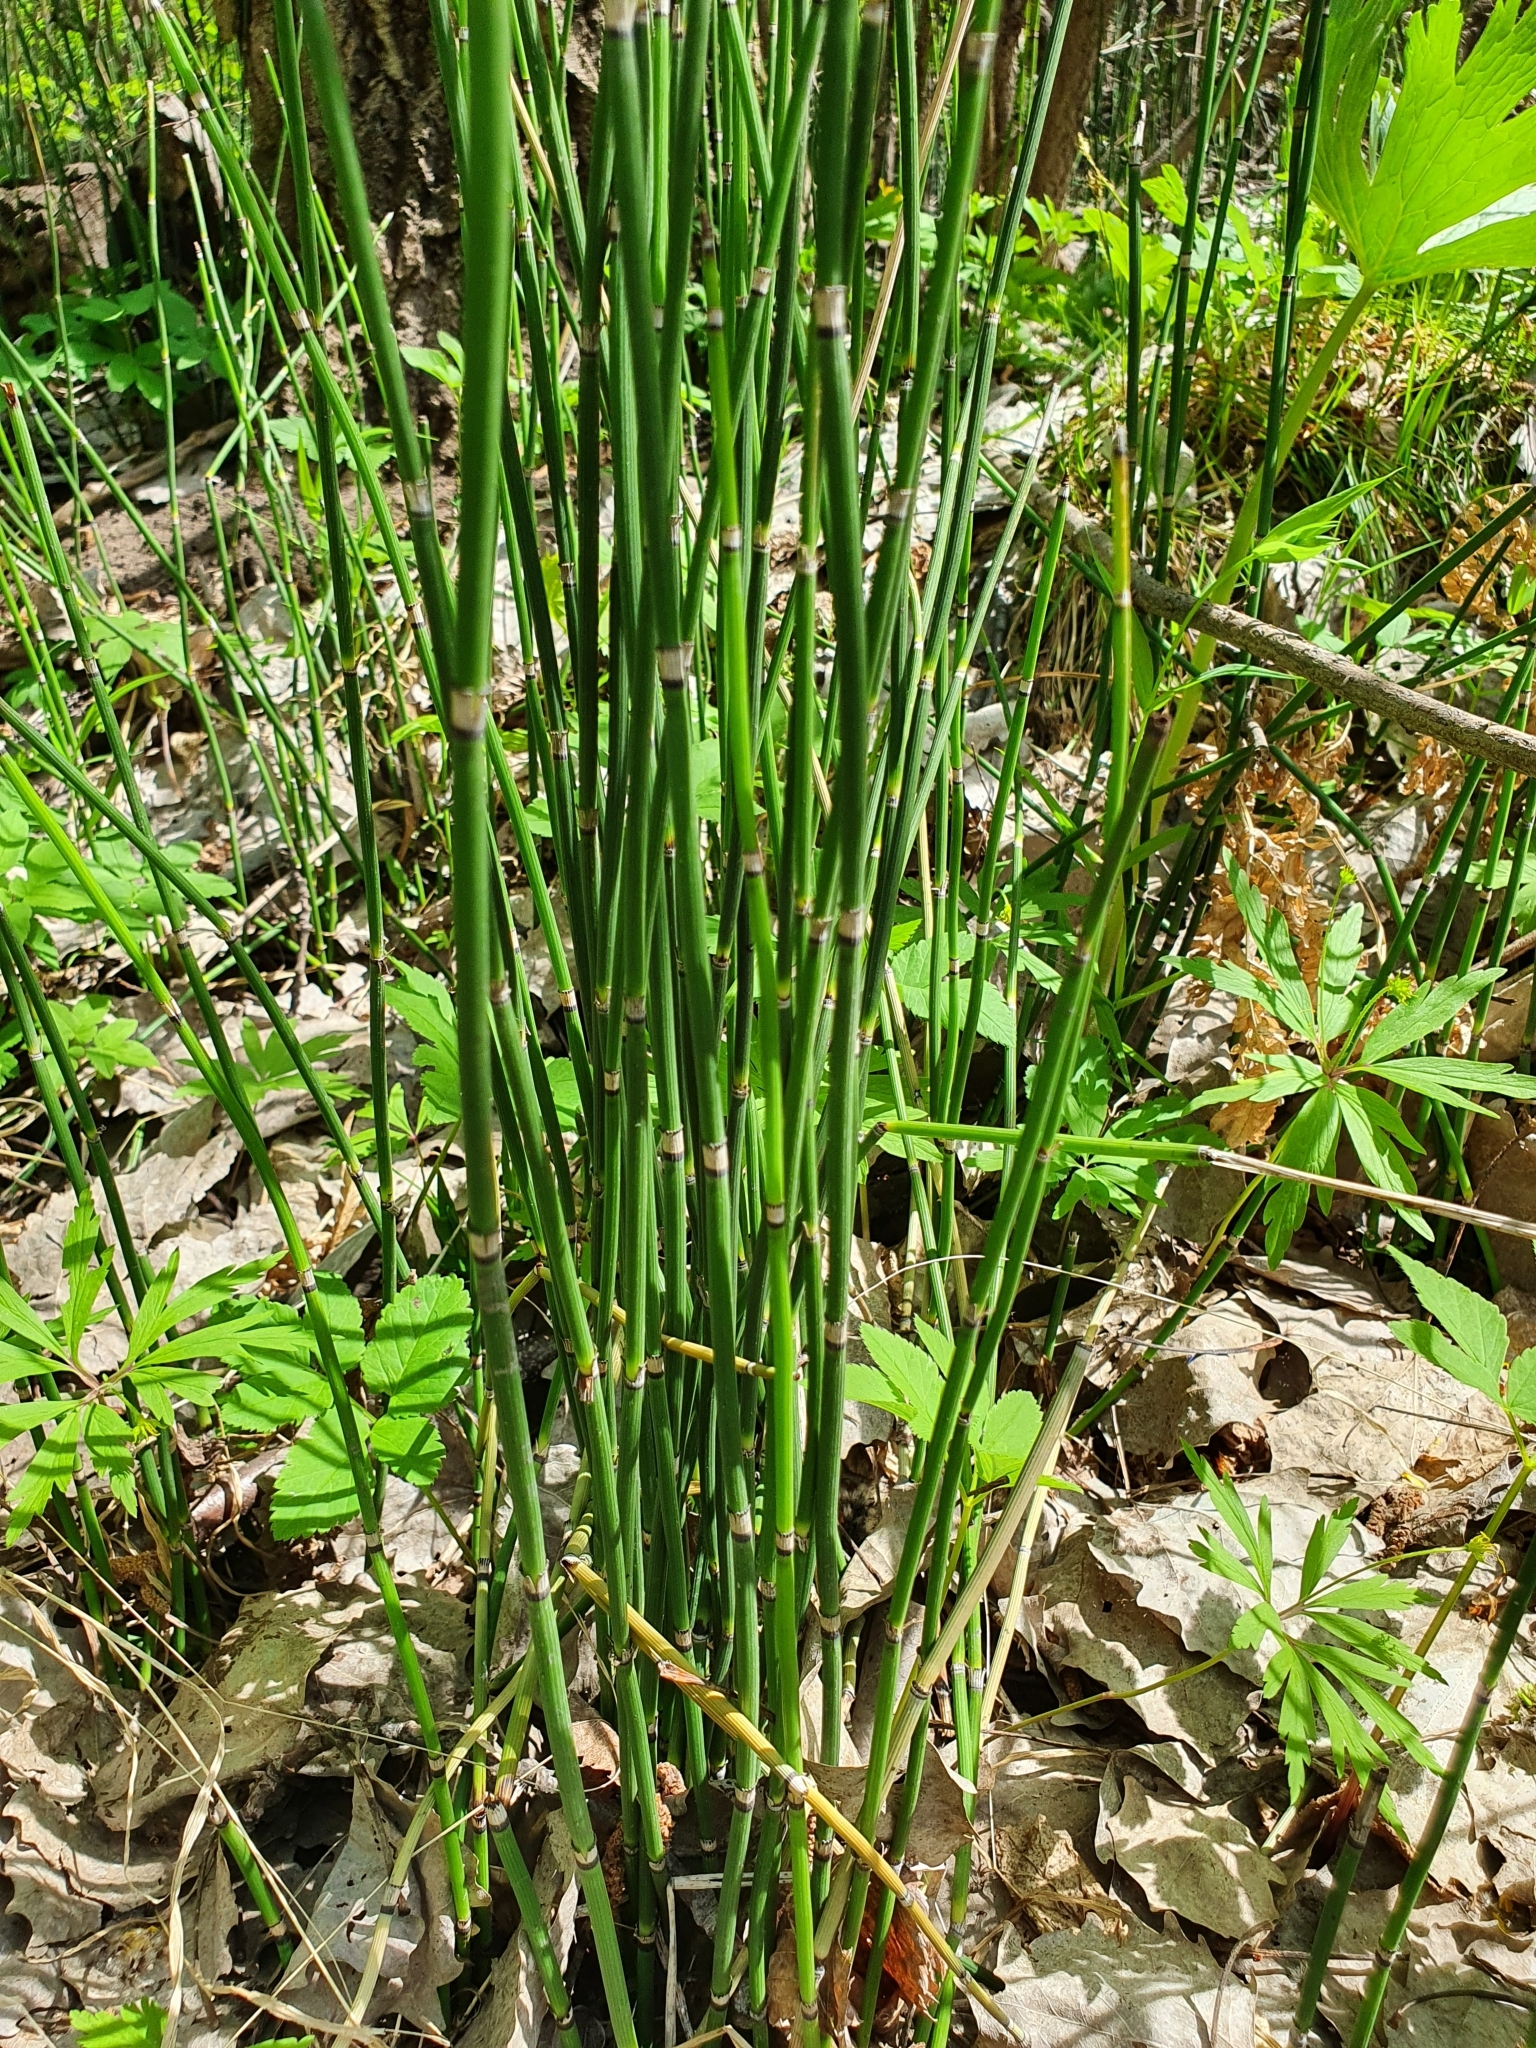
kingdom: Plantae
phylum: Tracheophyta
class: Polypodiopsida
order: Equisetales
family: Equisetaceae
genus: Equisetum
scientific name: Equisetum hyemale
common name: Rough horsetail
